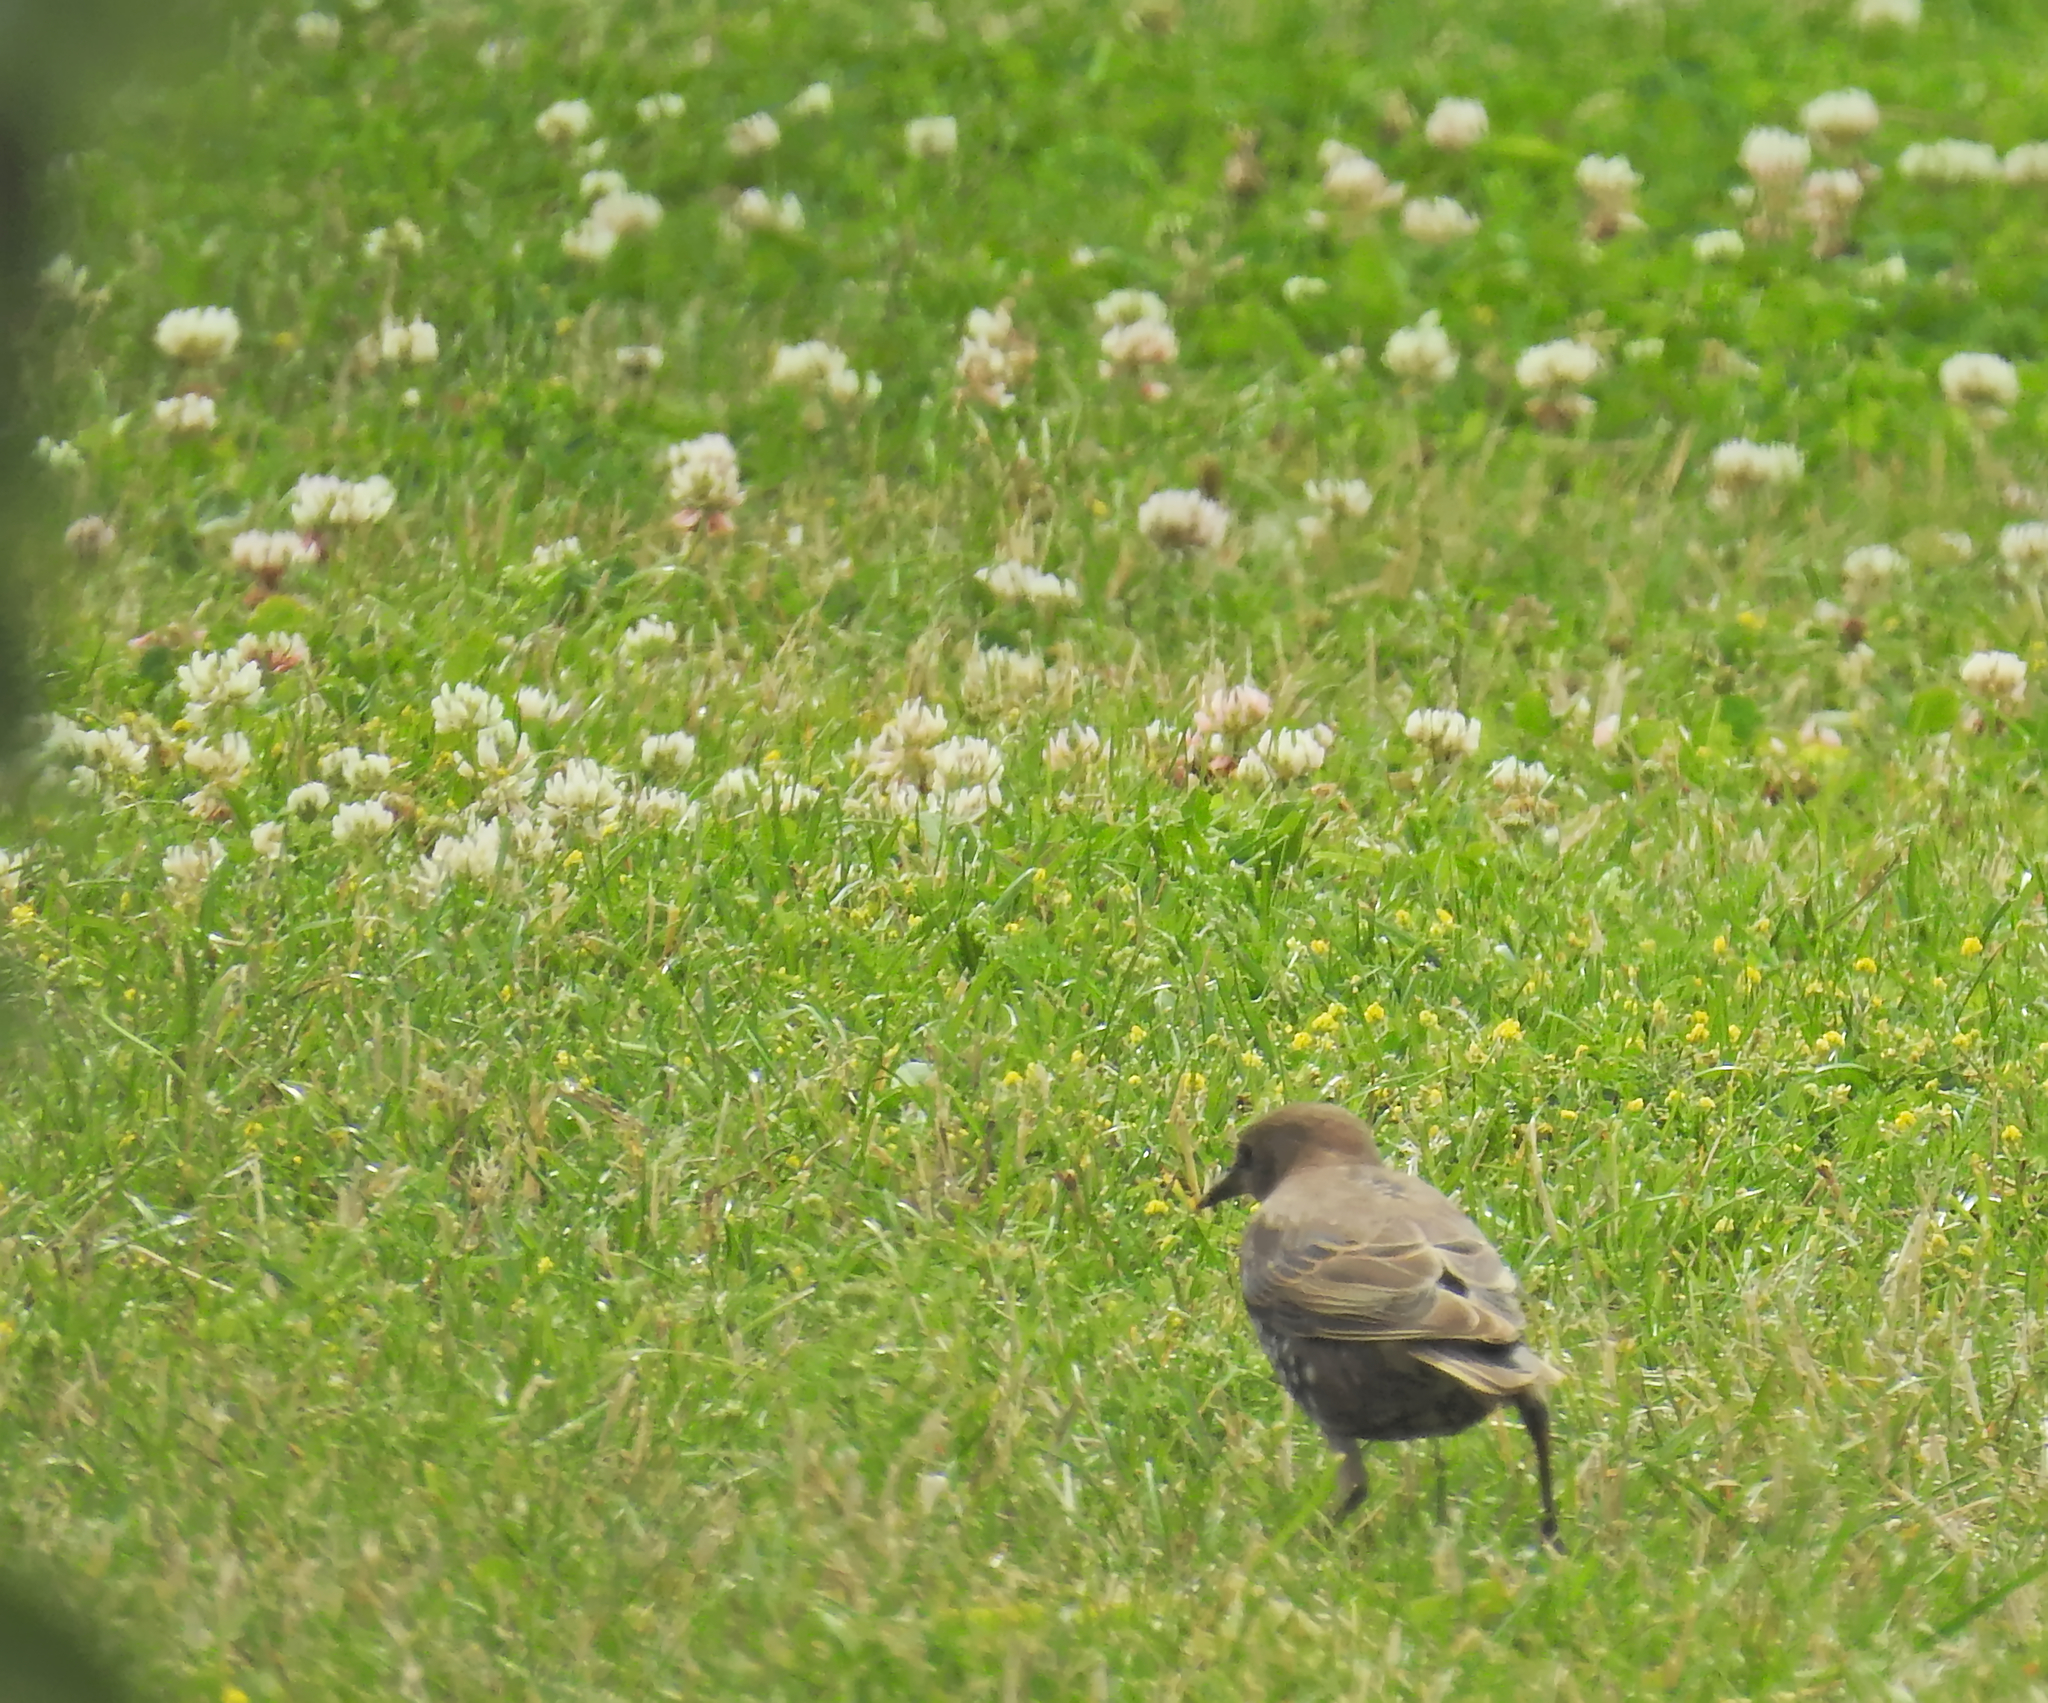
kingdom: Animalia
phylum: Chordata
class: Aves
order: Passeriformes
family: Sturnidae
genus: Sturnus
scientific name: Sturnus vulgaris
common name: Common starling
